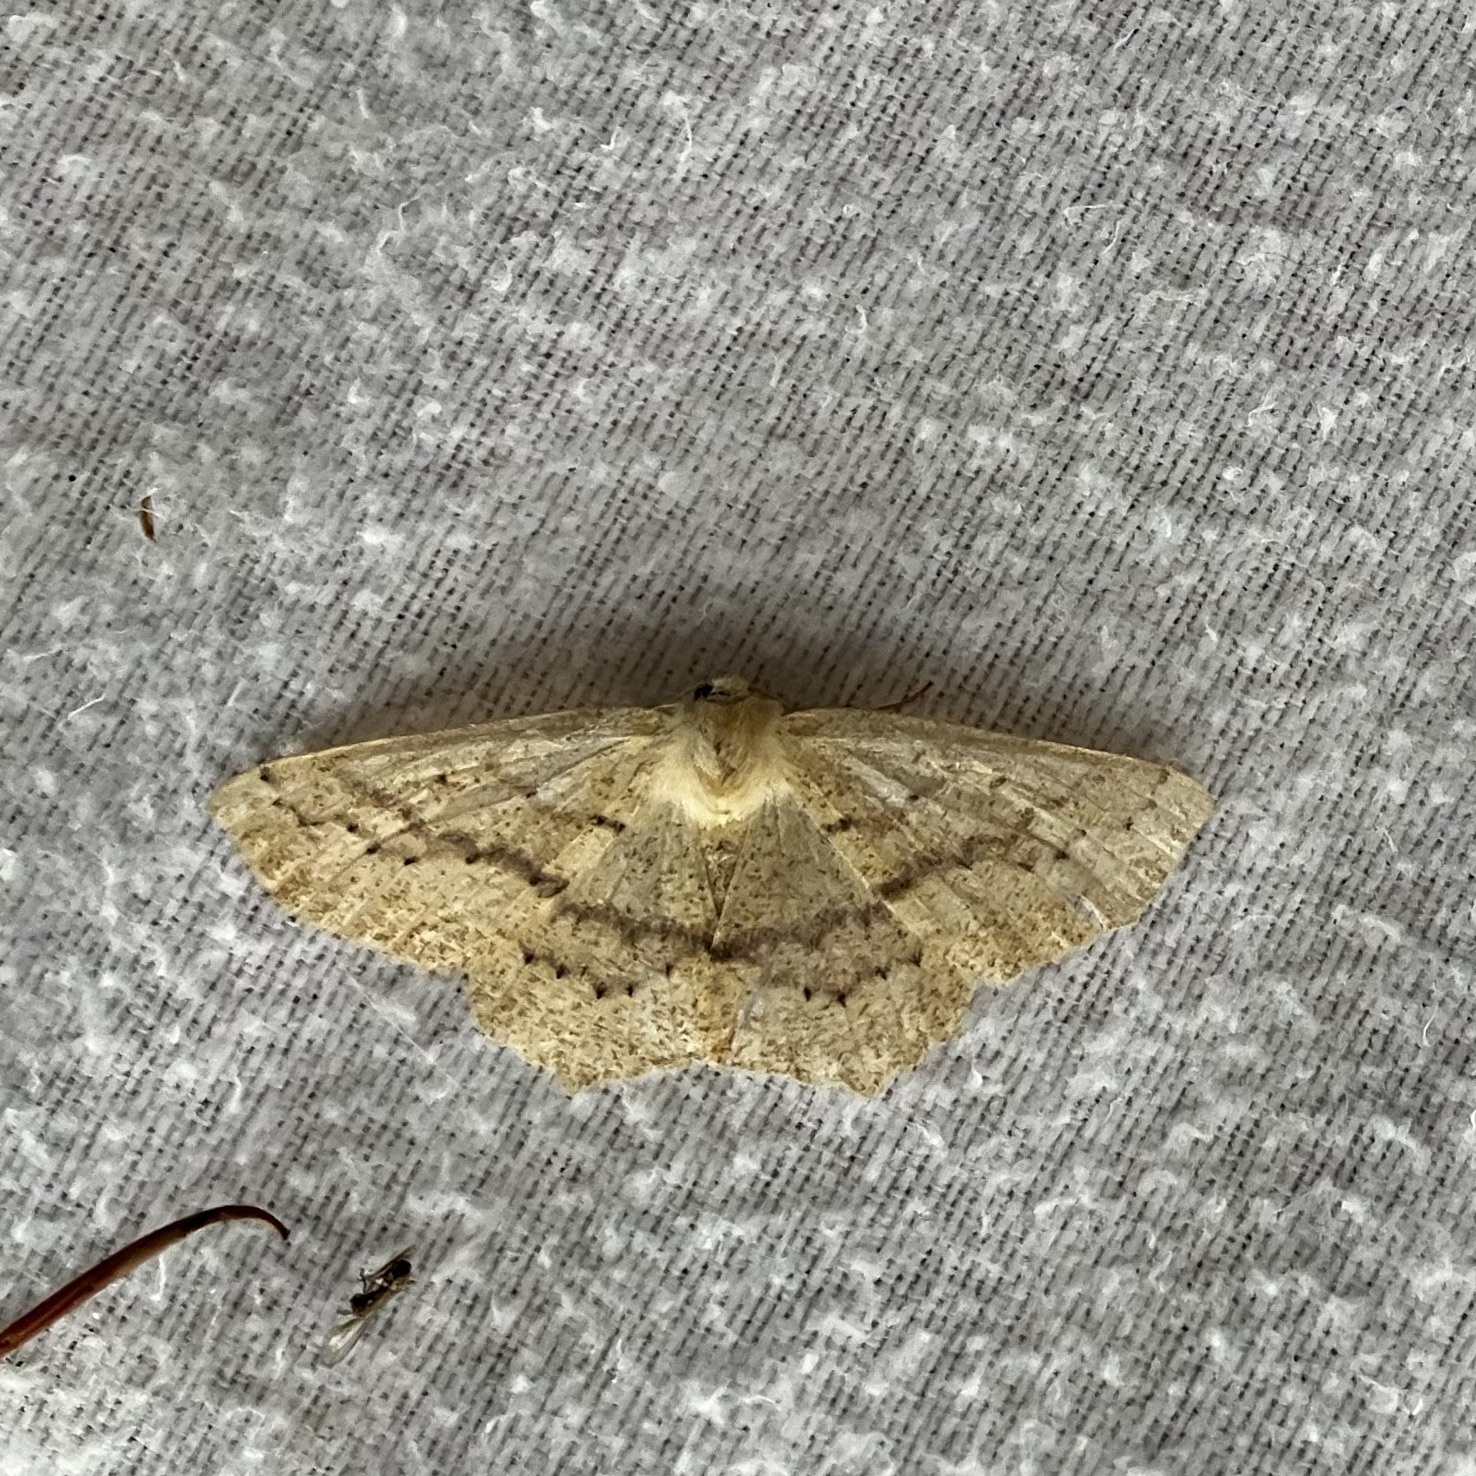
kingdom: Animalia
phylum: Arthropoda
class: Insecta
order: Lepidoptera
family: Geometridae
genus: Sabulodes
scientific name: Sabulodes aegrotata
